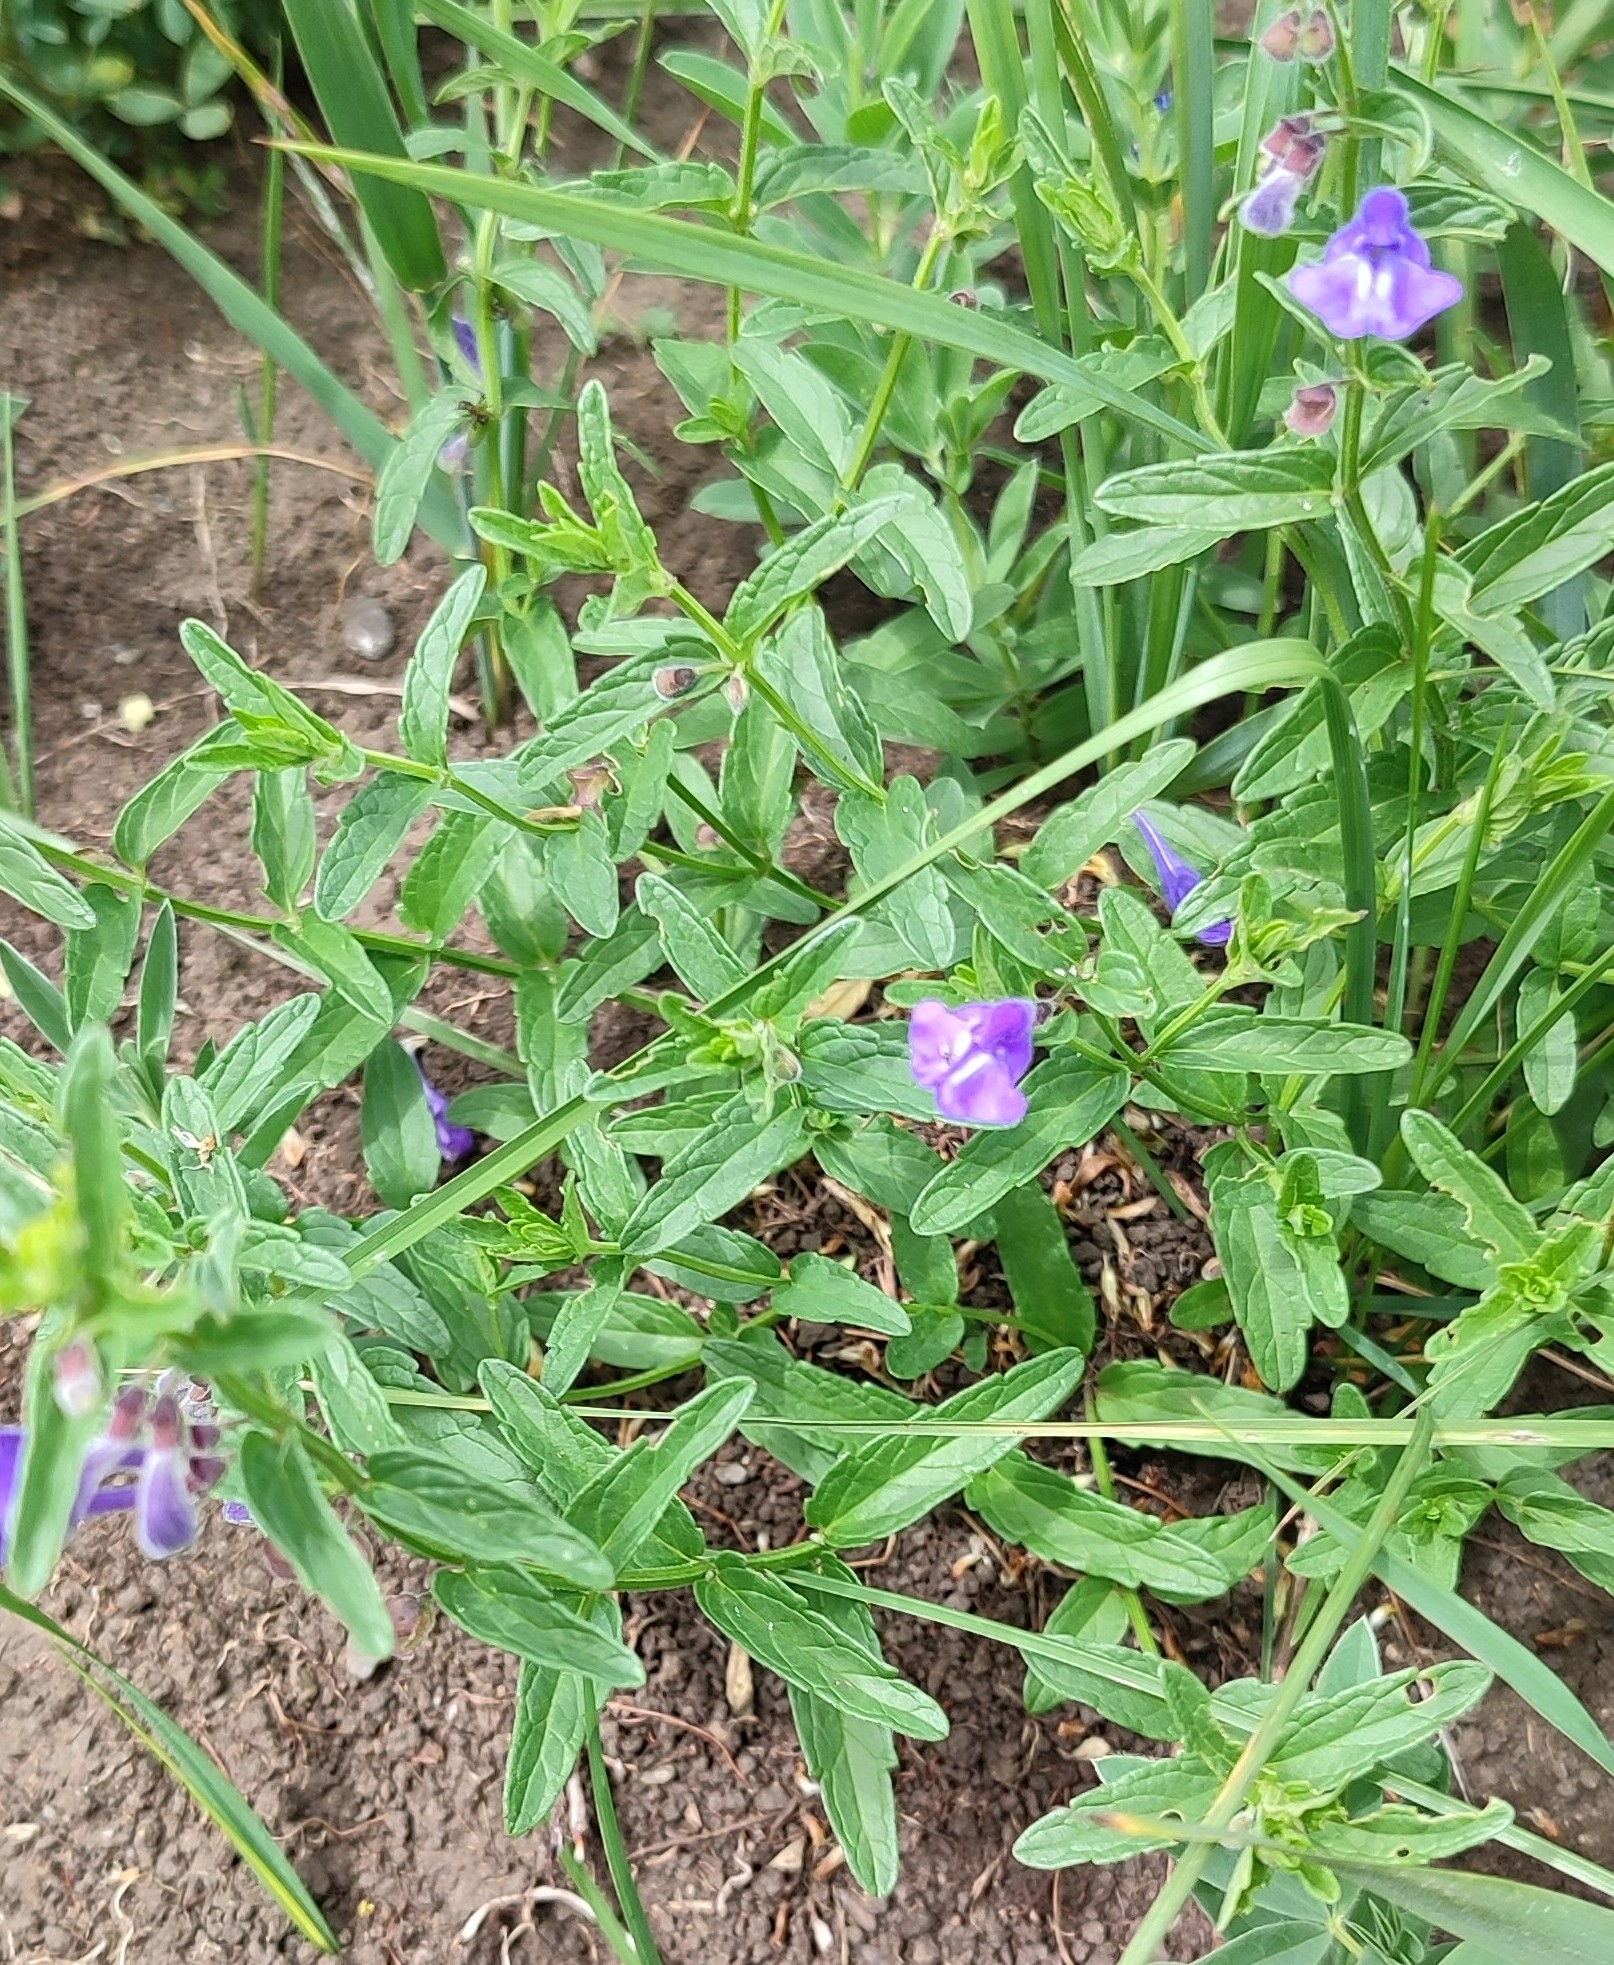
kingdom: Plantae
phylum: Tracheophyta
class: Magnoliopsida
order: Lamiales
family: Lamiaceae
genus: Scutellaria
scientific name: Scutellaria scordiifolia
